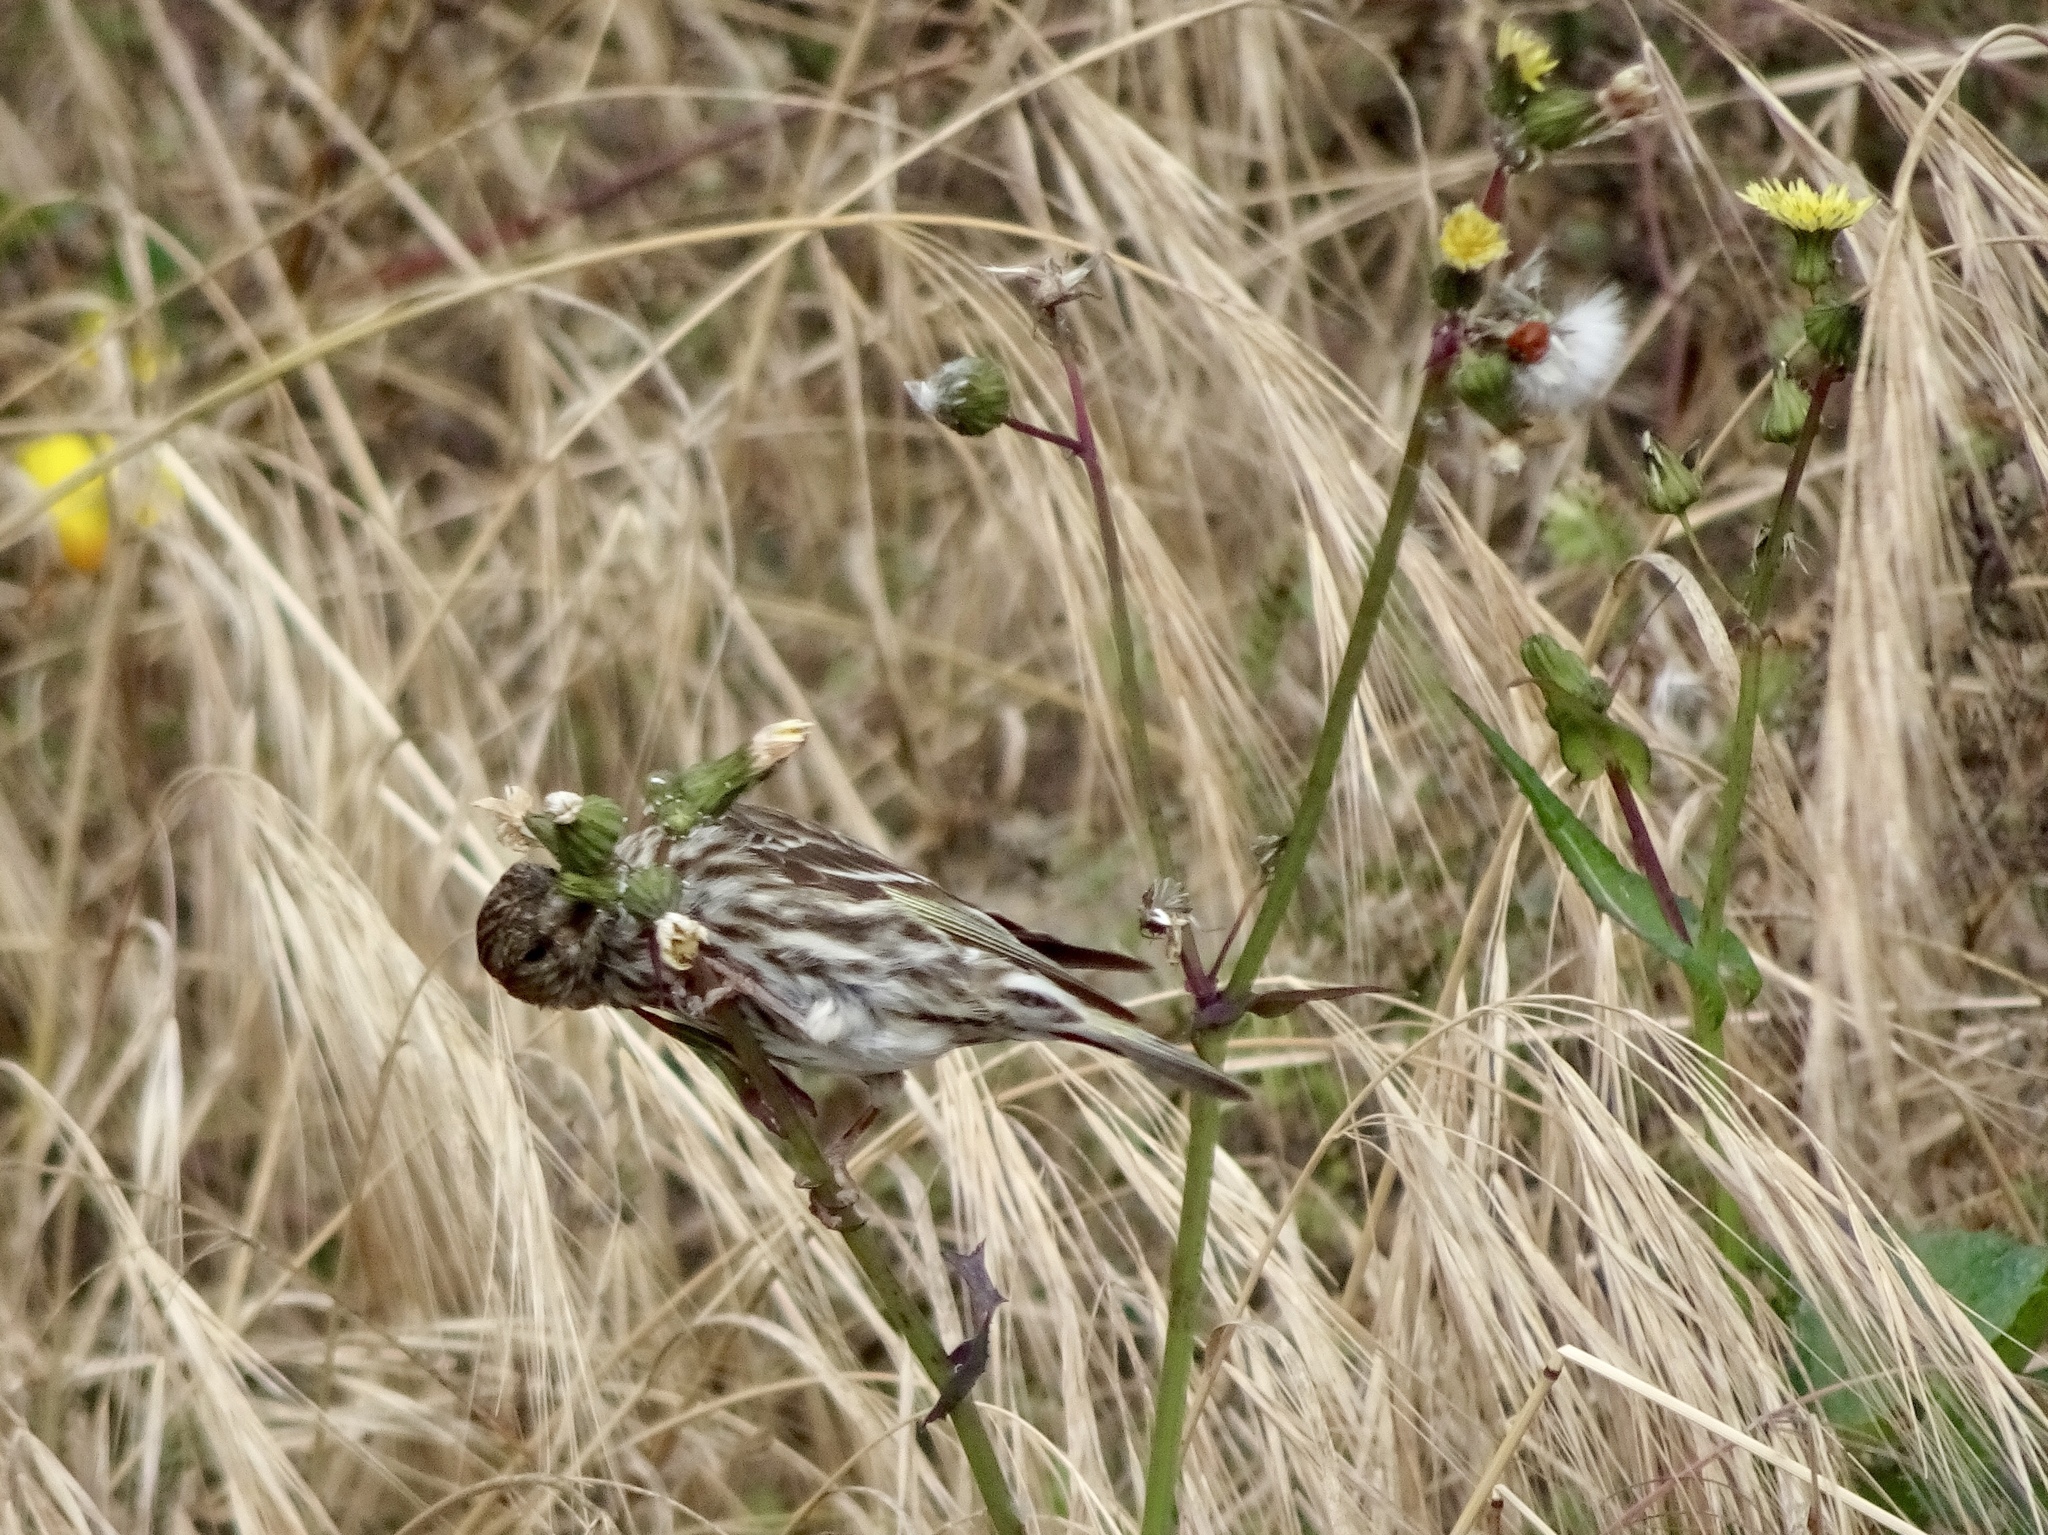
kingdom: Animalia
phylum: Chordata
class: Aves
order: Passeriformes
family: Fringillidae
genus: Spinus
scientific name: Spinus pinus
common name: Pine siskin
